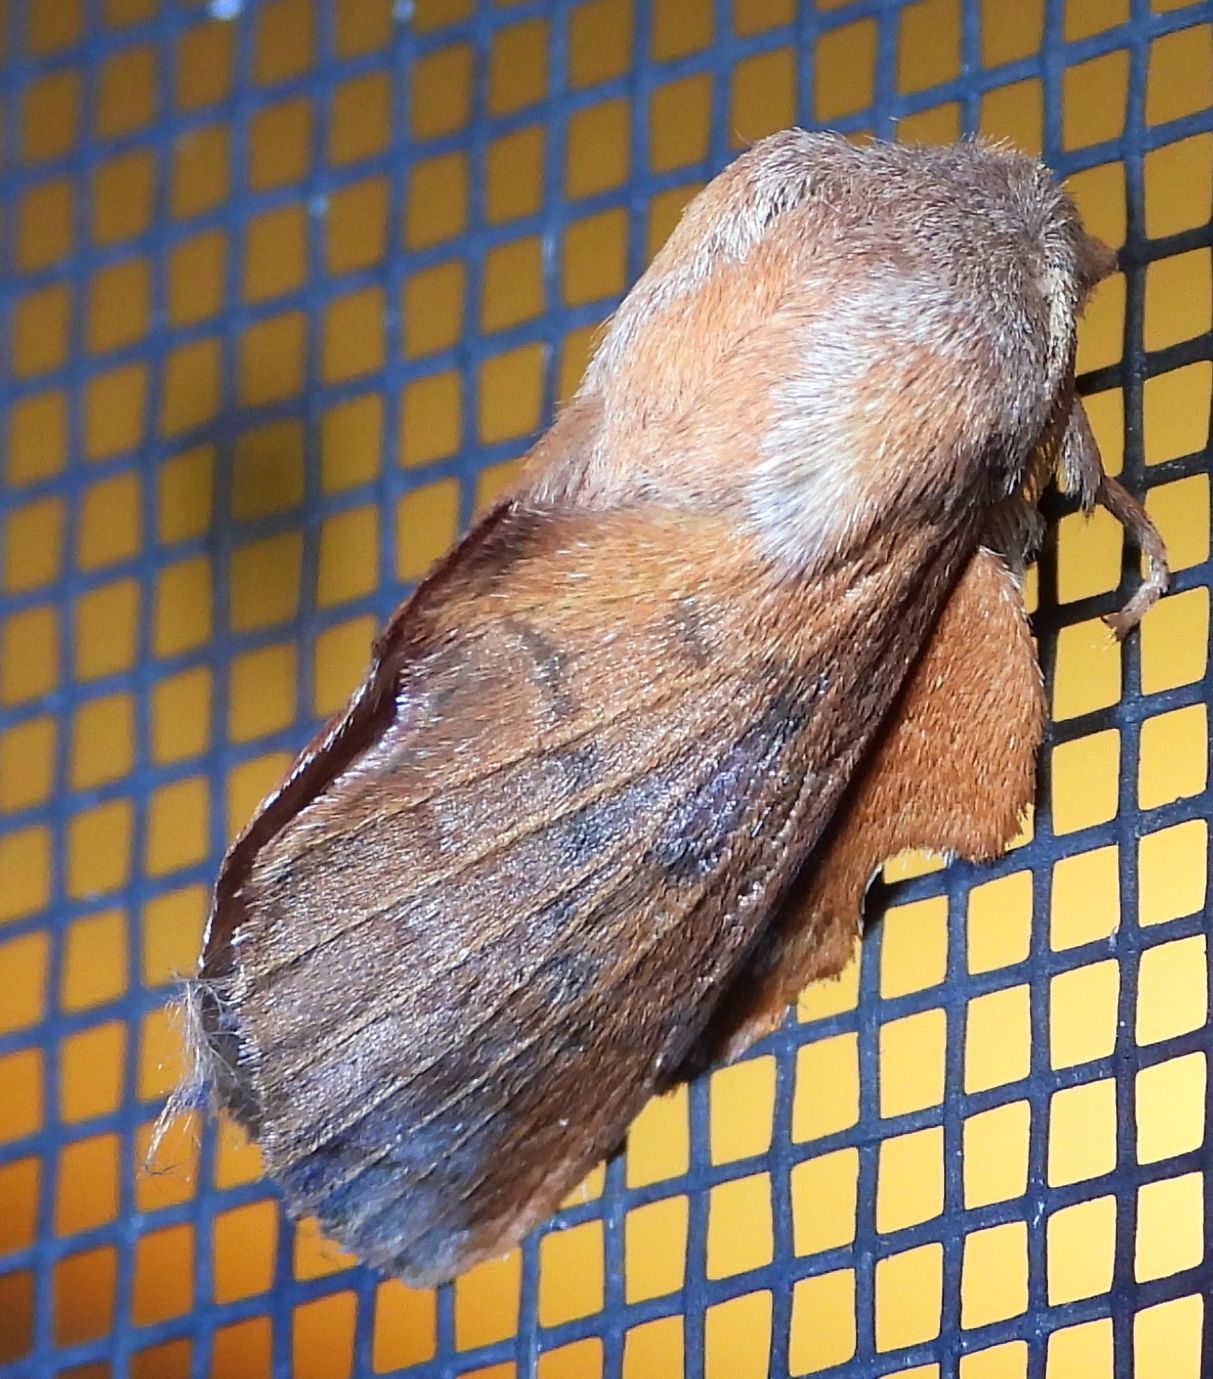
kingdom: Animalia
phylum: Arthropoda
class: Insecta
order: Lepidoptera
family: Lasiocampidae
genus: Phyllodesma
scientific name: Phyllodesma americana
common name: American lappet moth
